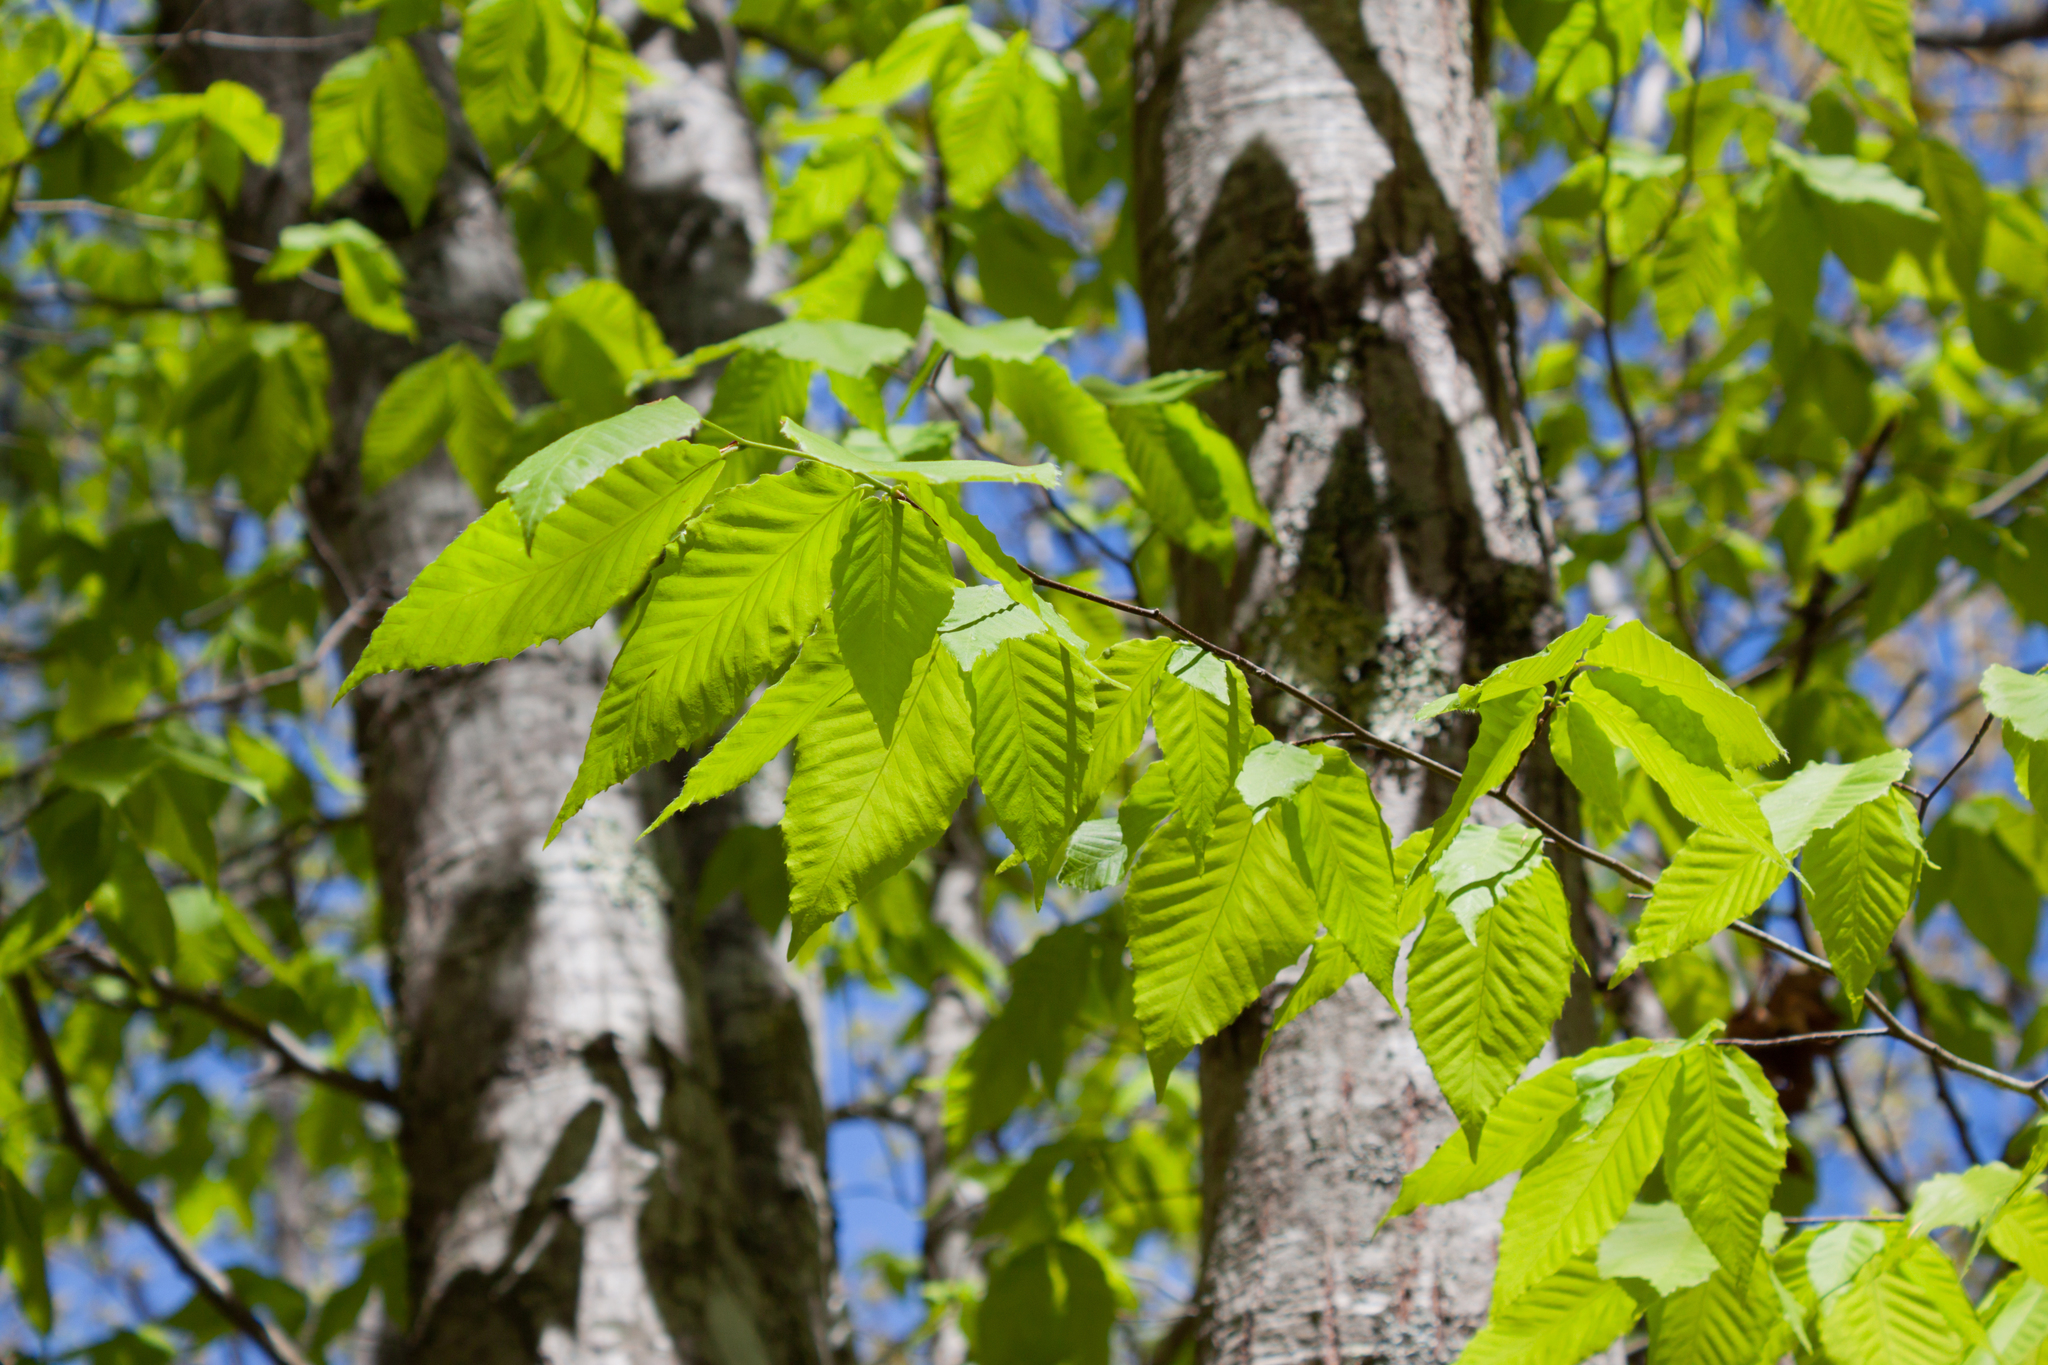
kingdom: Plantae
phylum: Tracheophyta
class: Magnoliopsida
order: Fagales
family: Fagaceae
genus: Fagus
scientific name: Fagus grandifolia
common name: American beech
